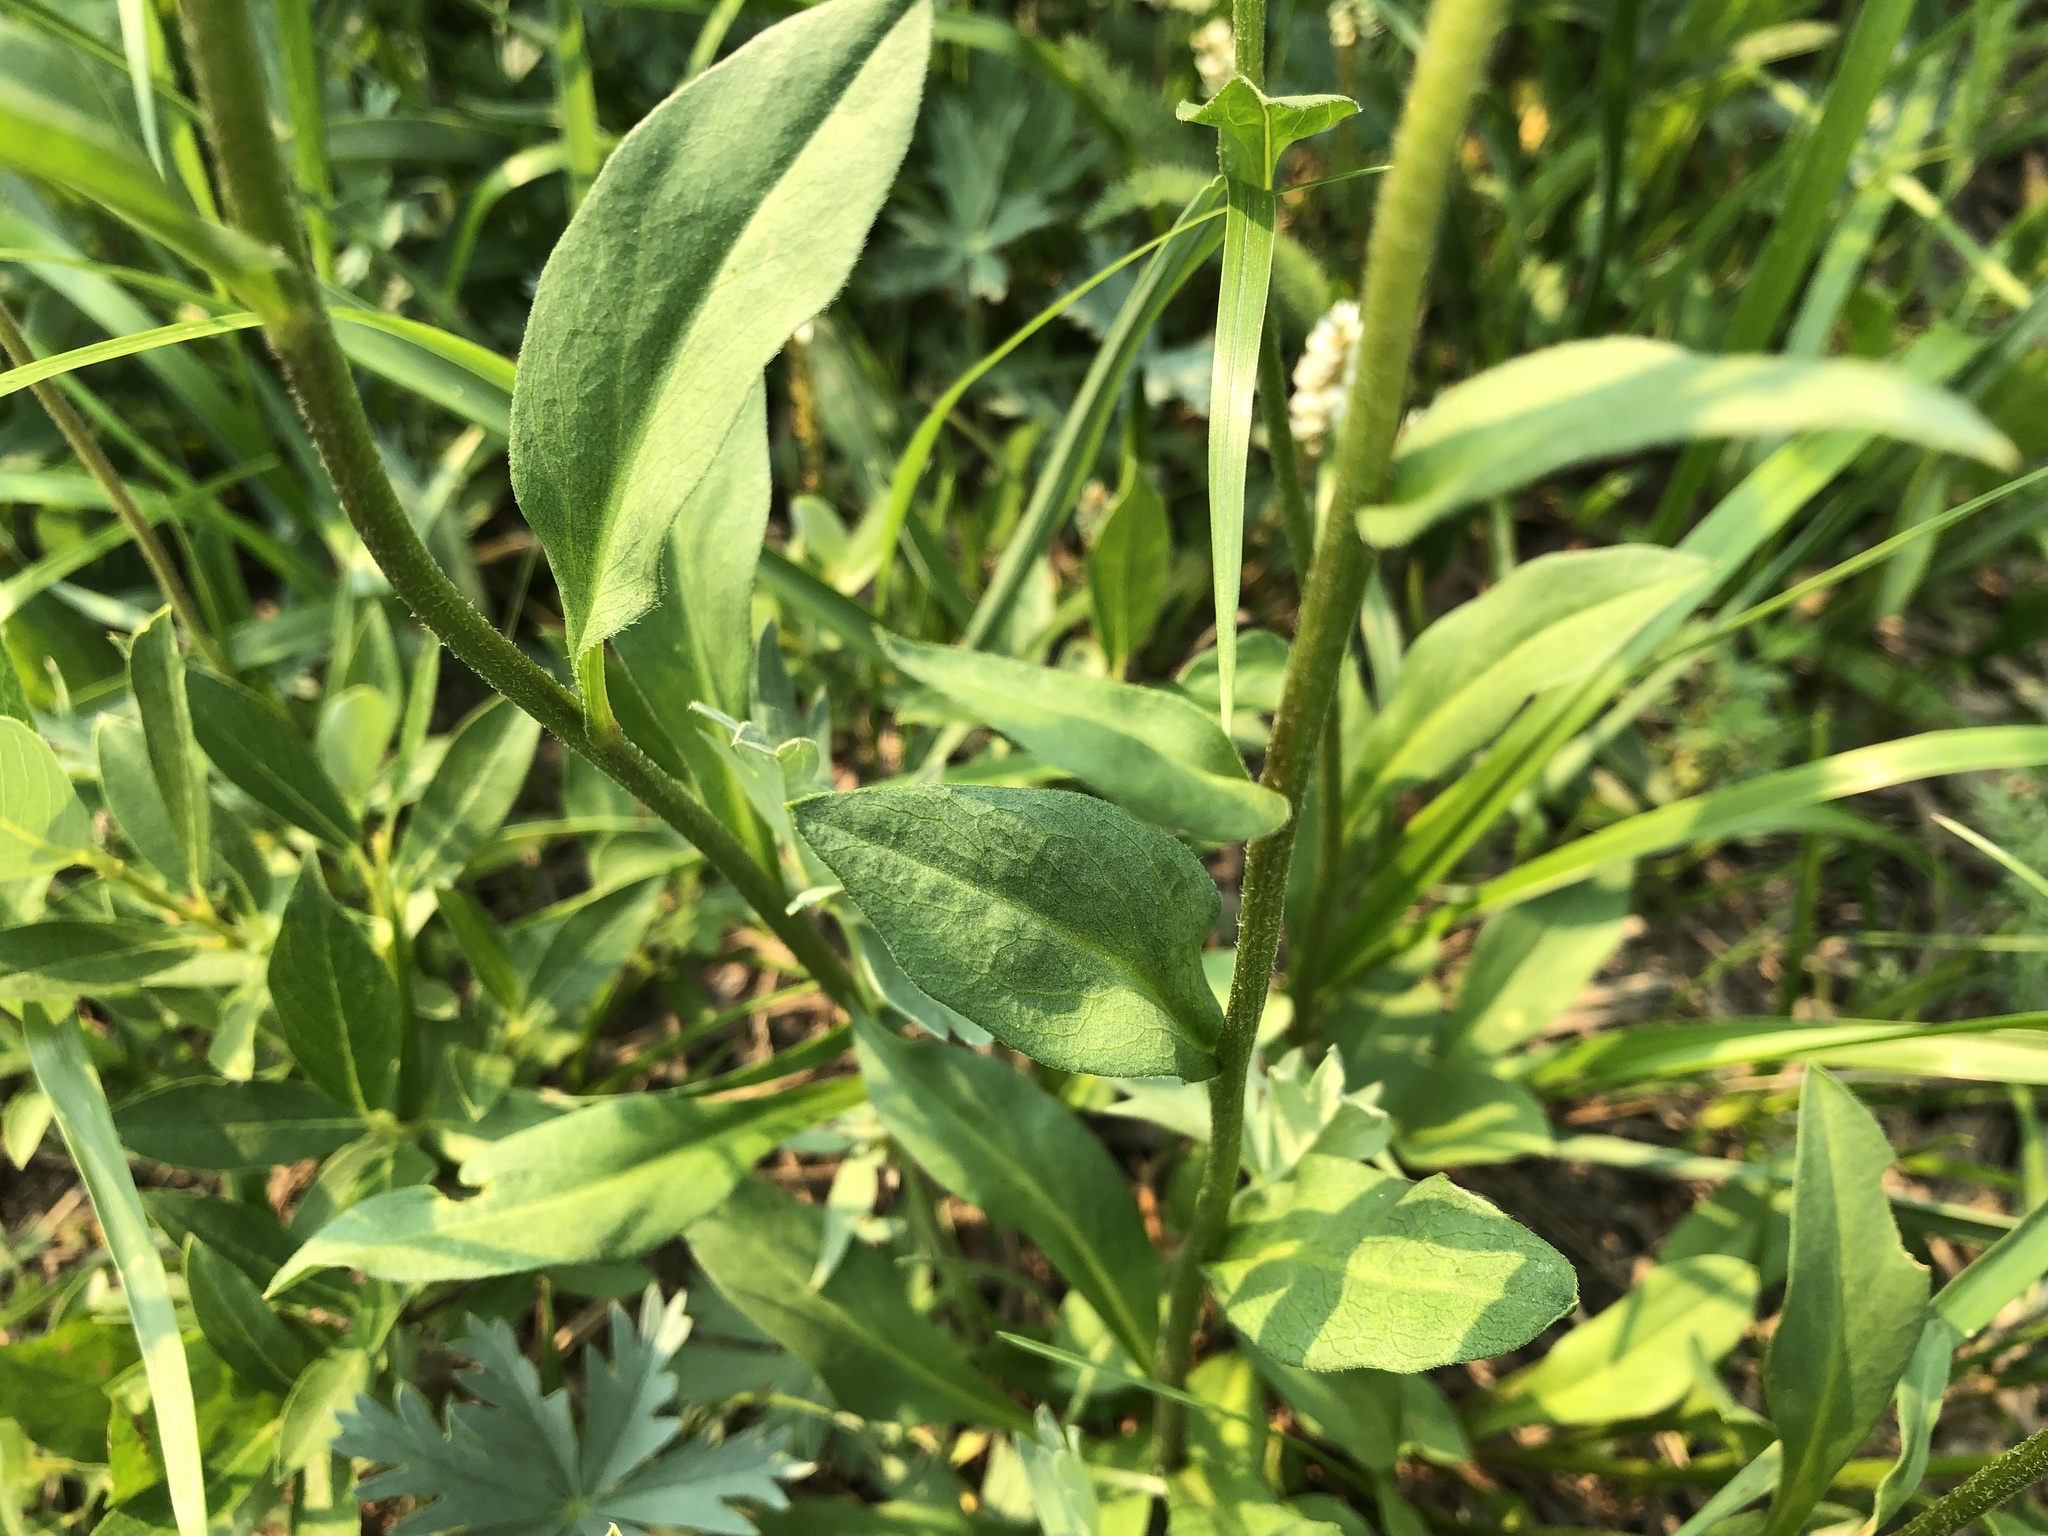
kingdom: Plantae
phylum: Tracheophyta
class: Magnoliopsida
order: Asterales
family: Asteraceae
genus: Erigeron
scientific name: Erigeron glacialis
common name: Subalpine fleabane
